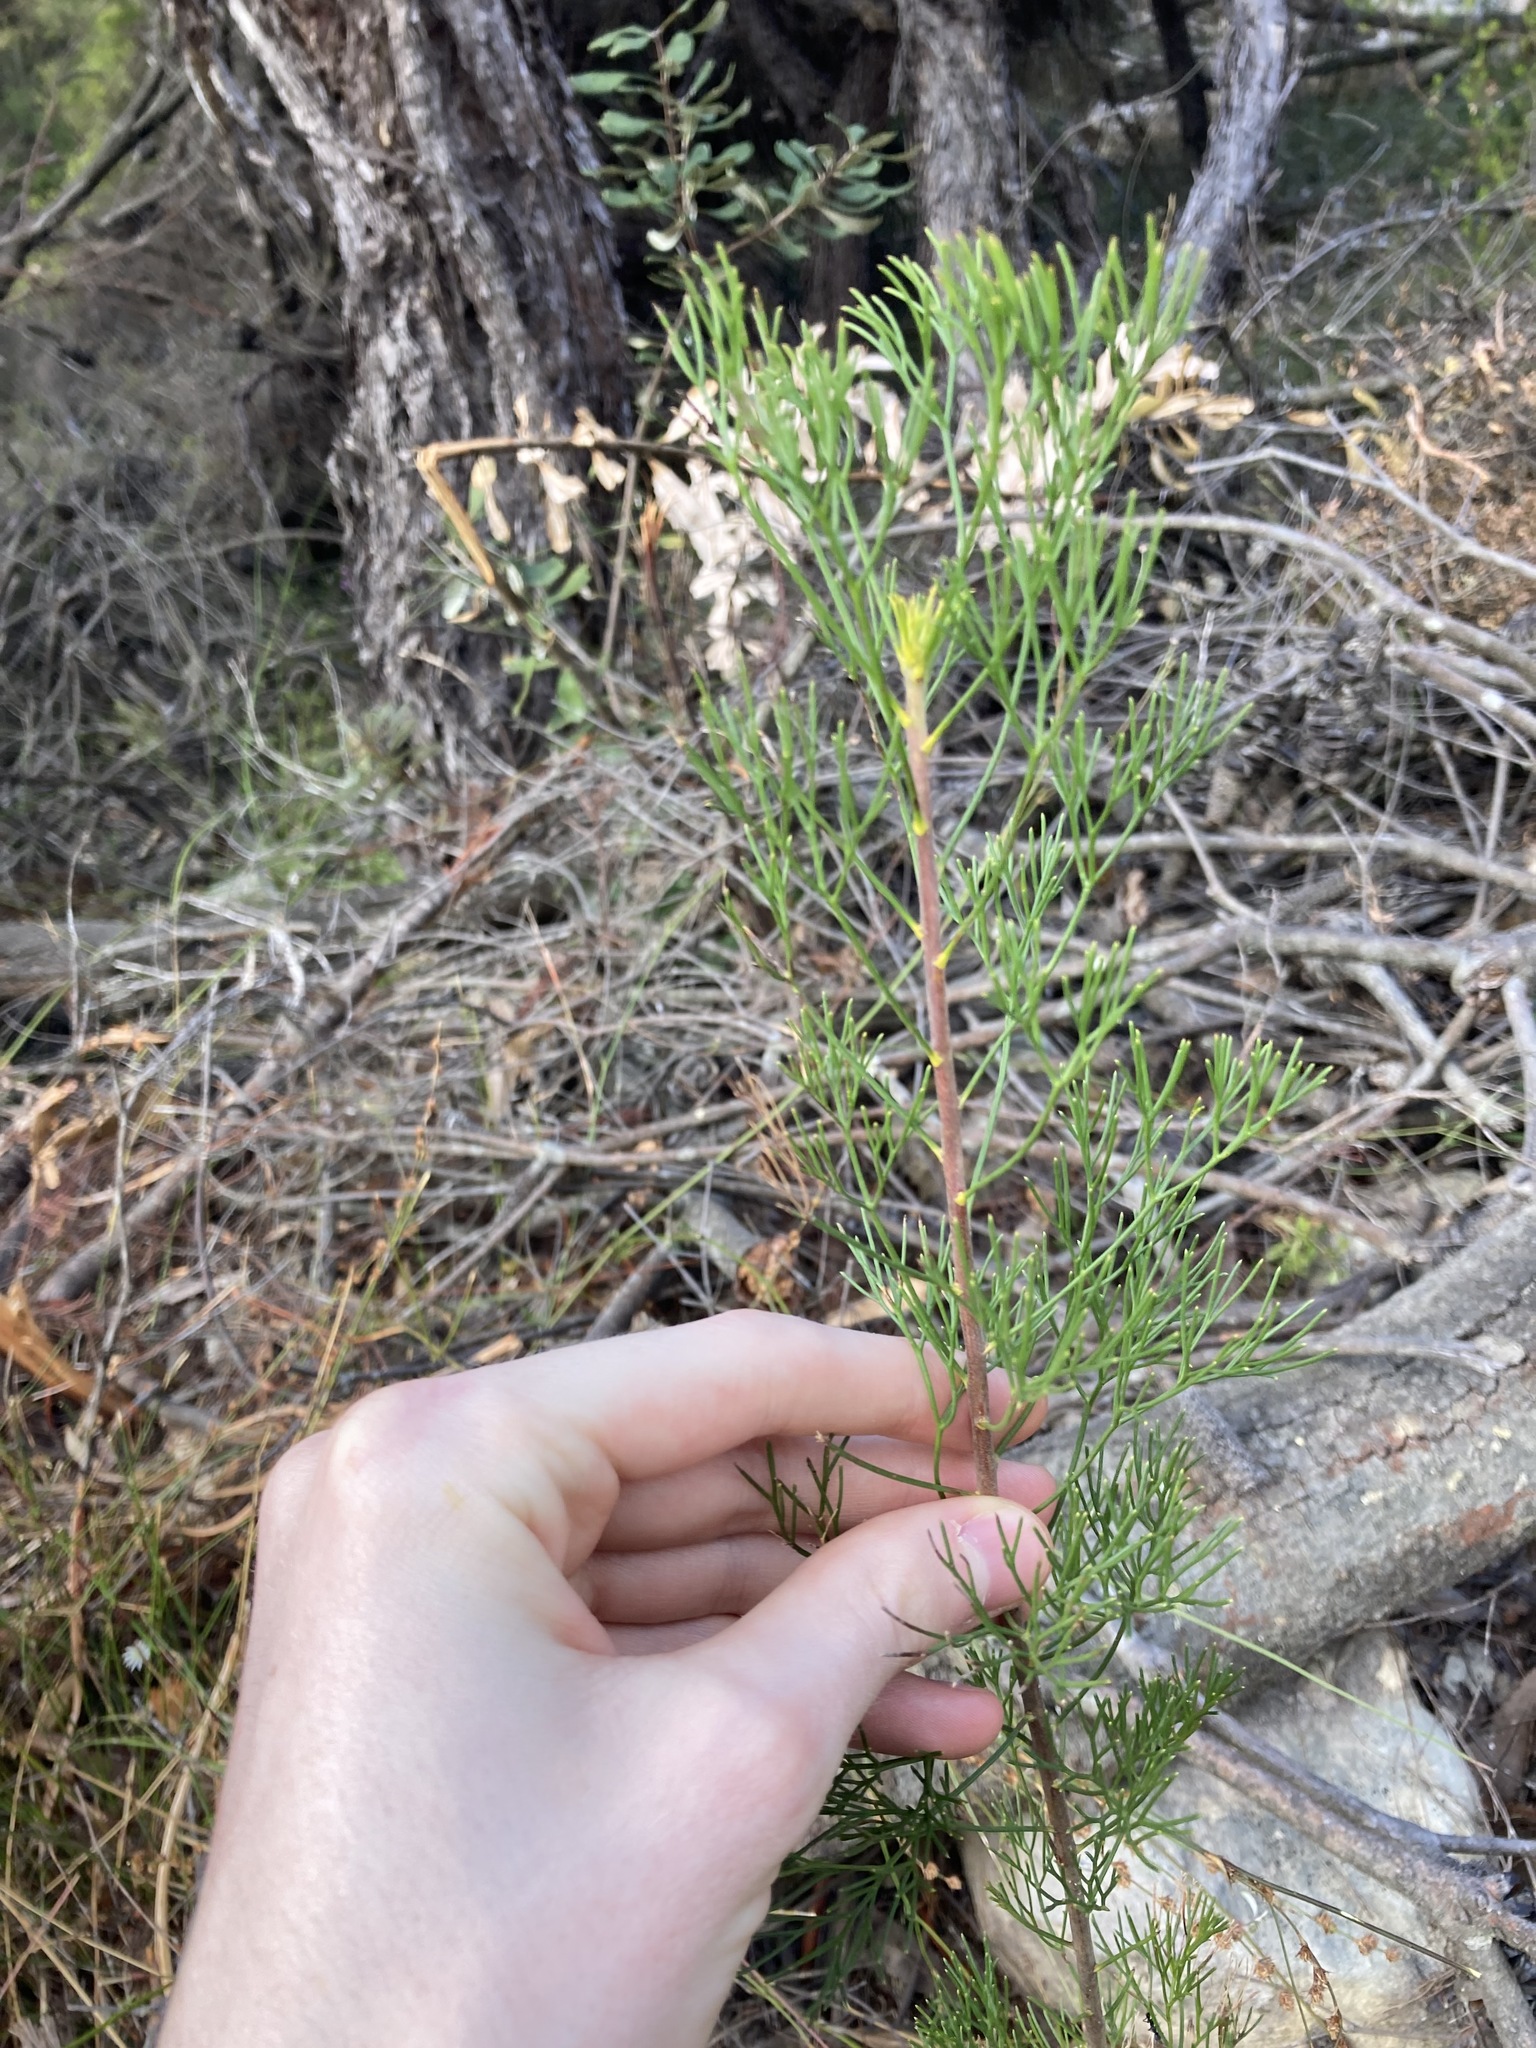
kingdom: Plantae
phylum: Tracheophyta
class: Magnoliopsida
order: Proteales
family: Proteaceae
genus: Petrophile
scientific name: Petrophile pulchella
